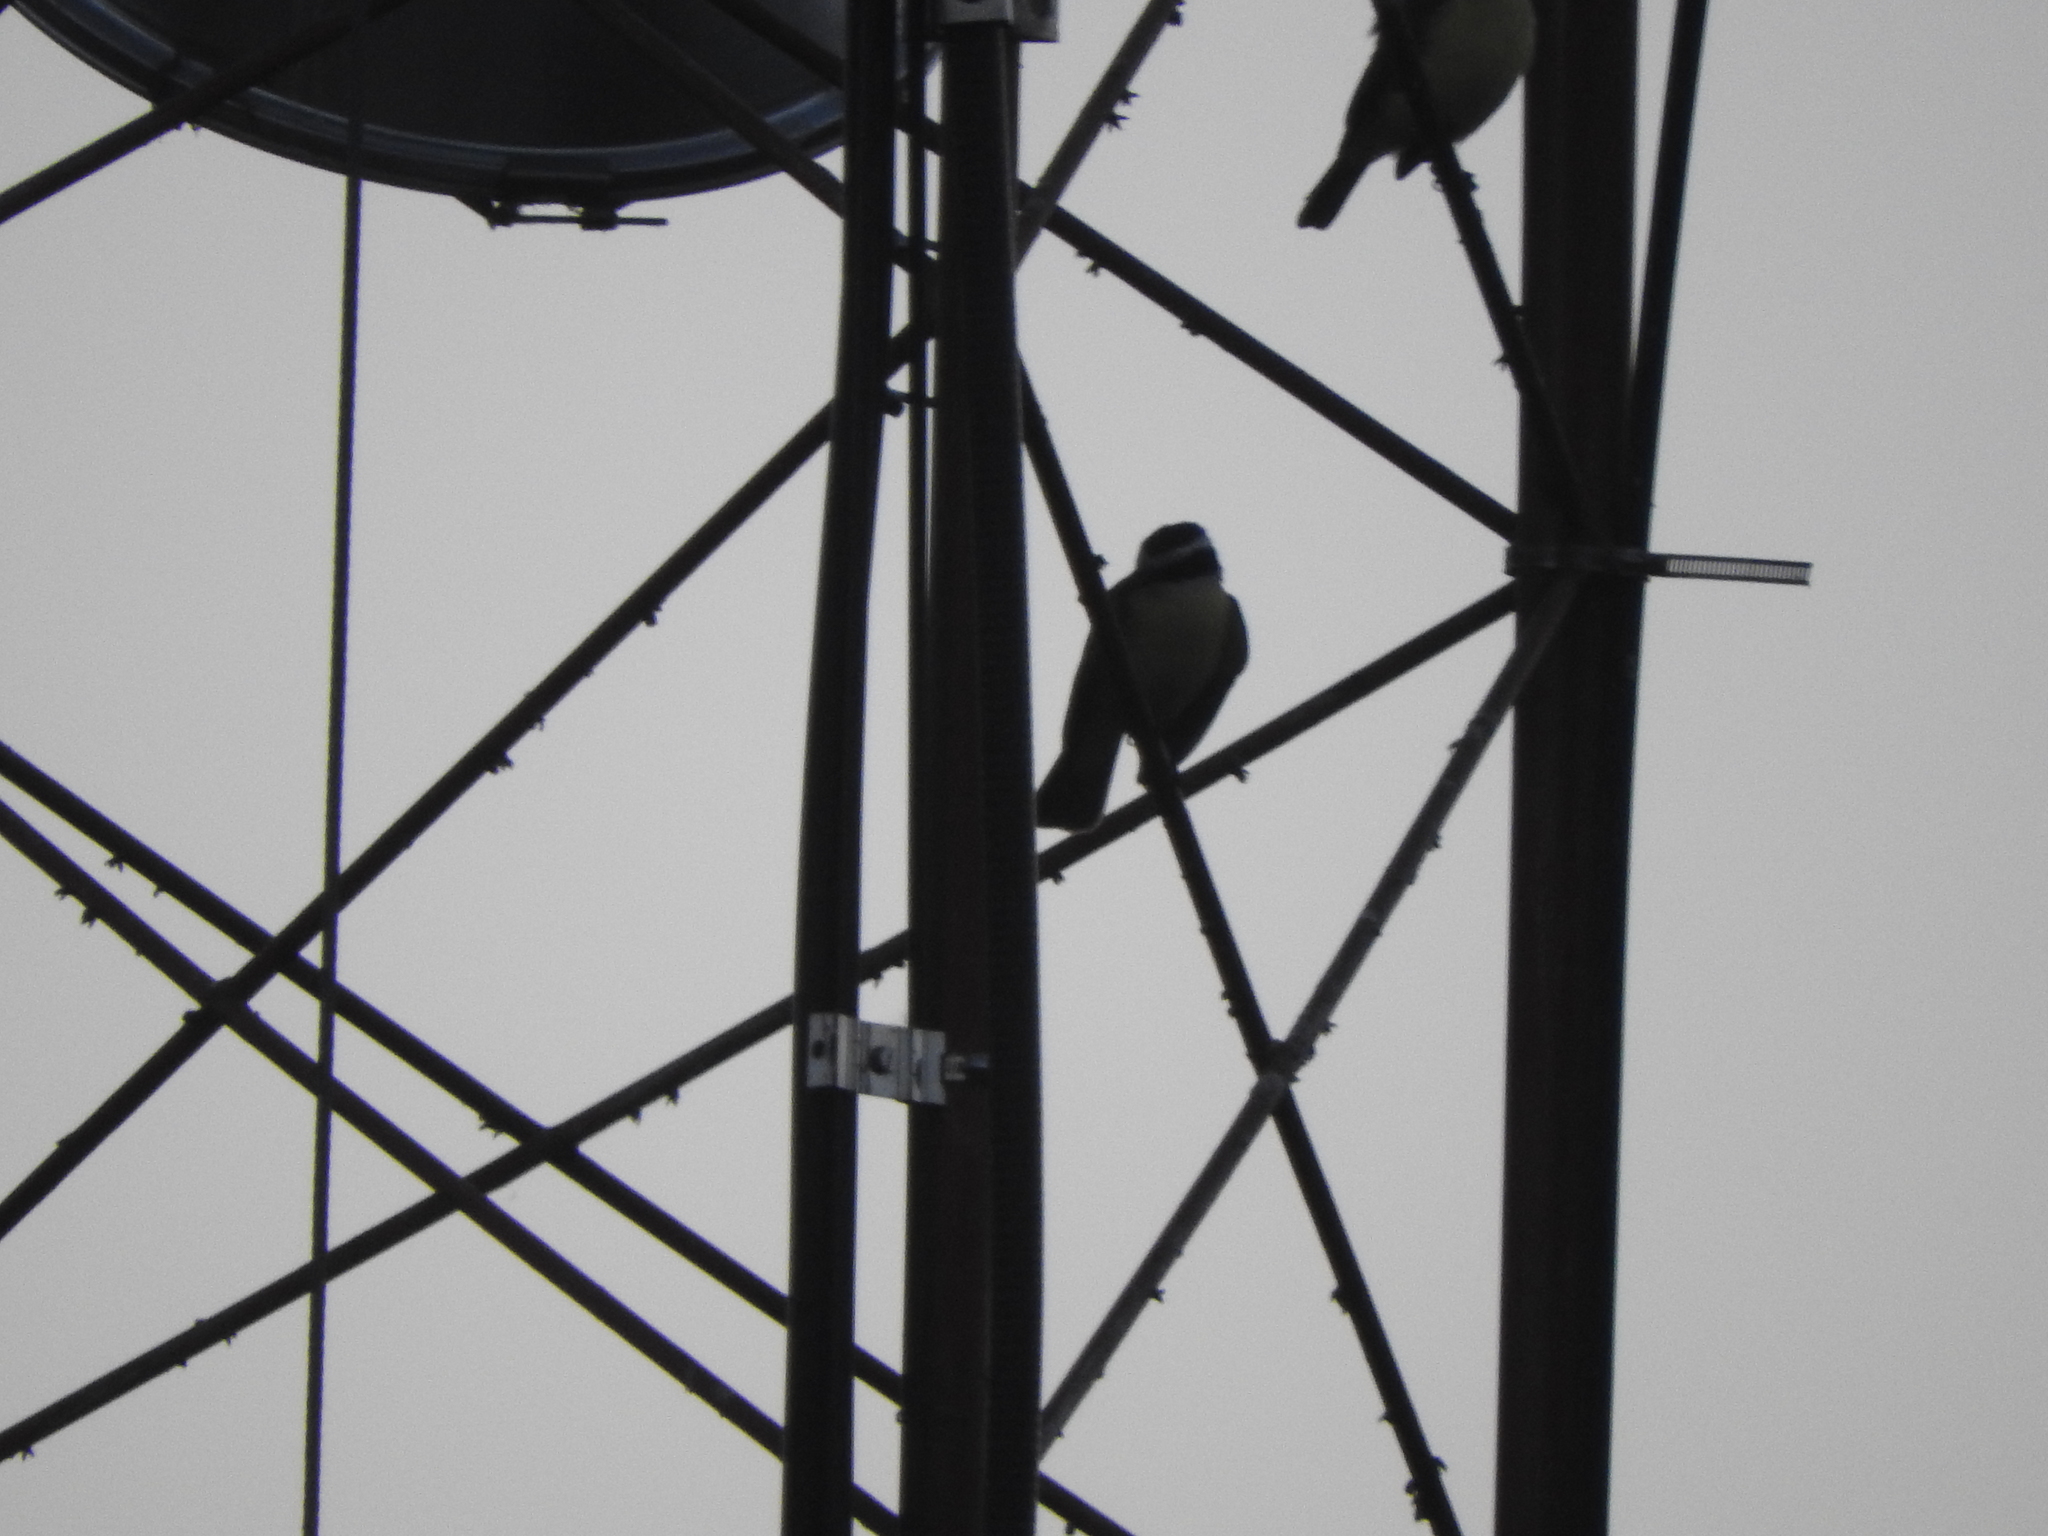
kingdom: Animalia
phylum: Chordata
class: Aves
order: Passeriformes
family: Tyrannidae
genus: Pitangus
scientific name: Pitangus sulphuratus
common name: Great kiskadee
